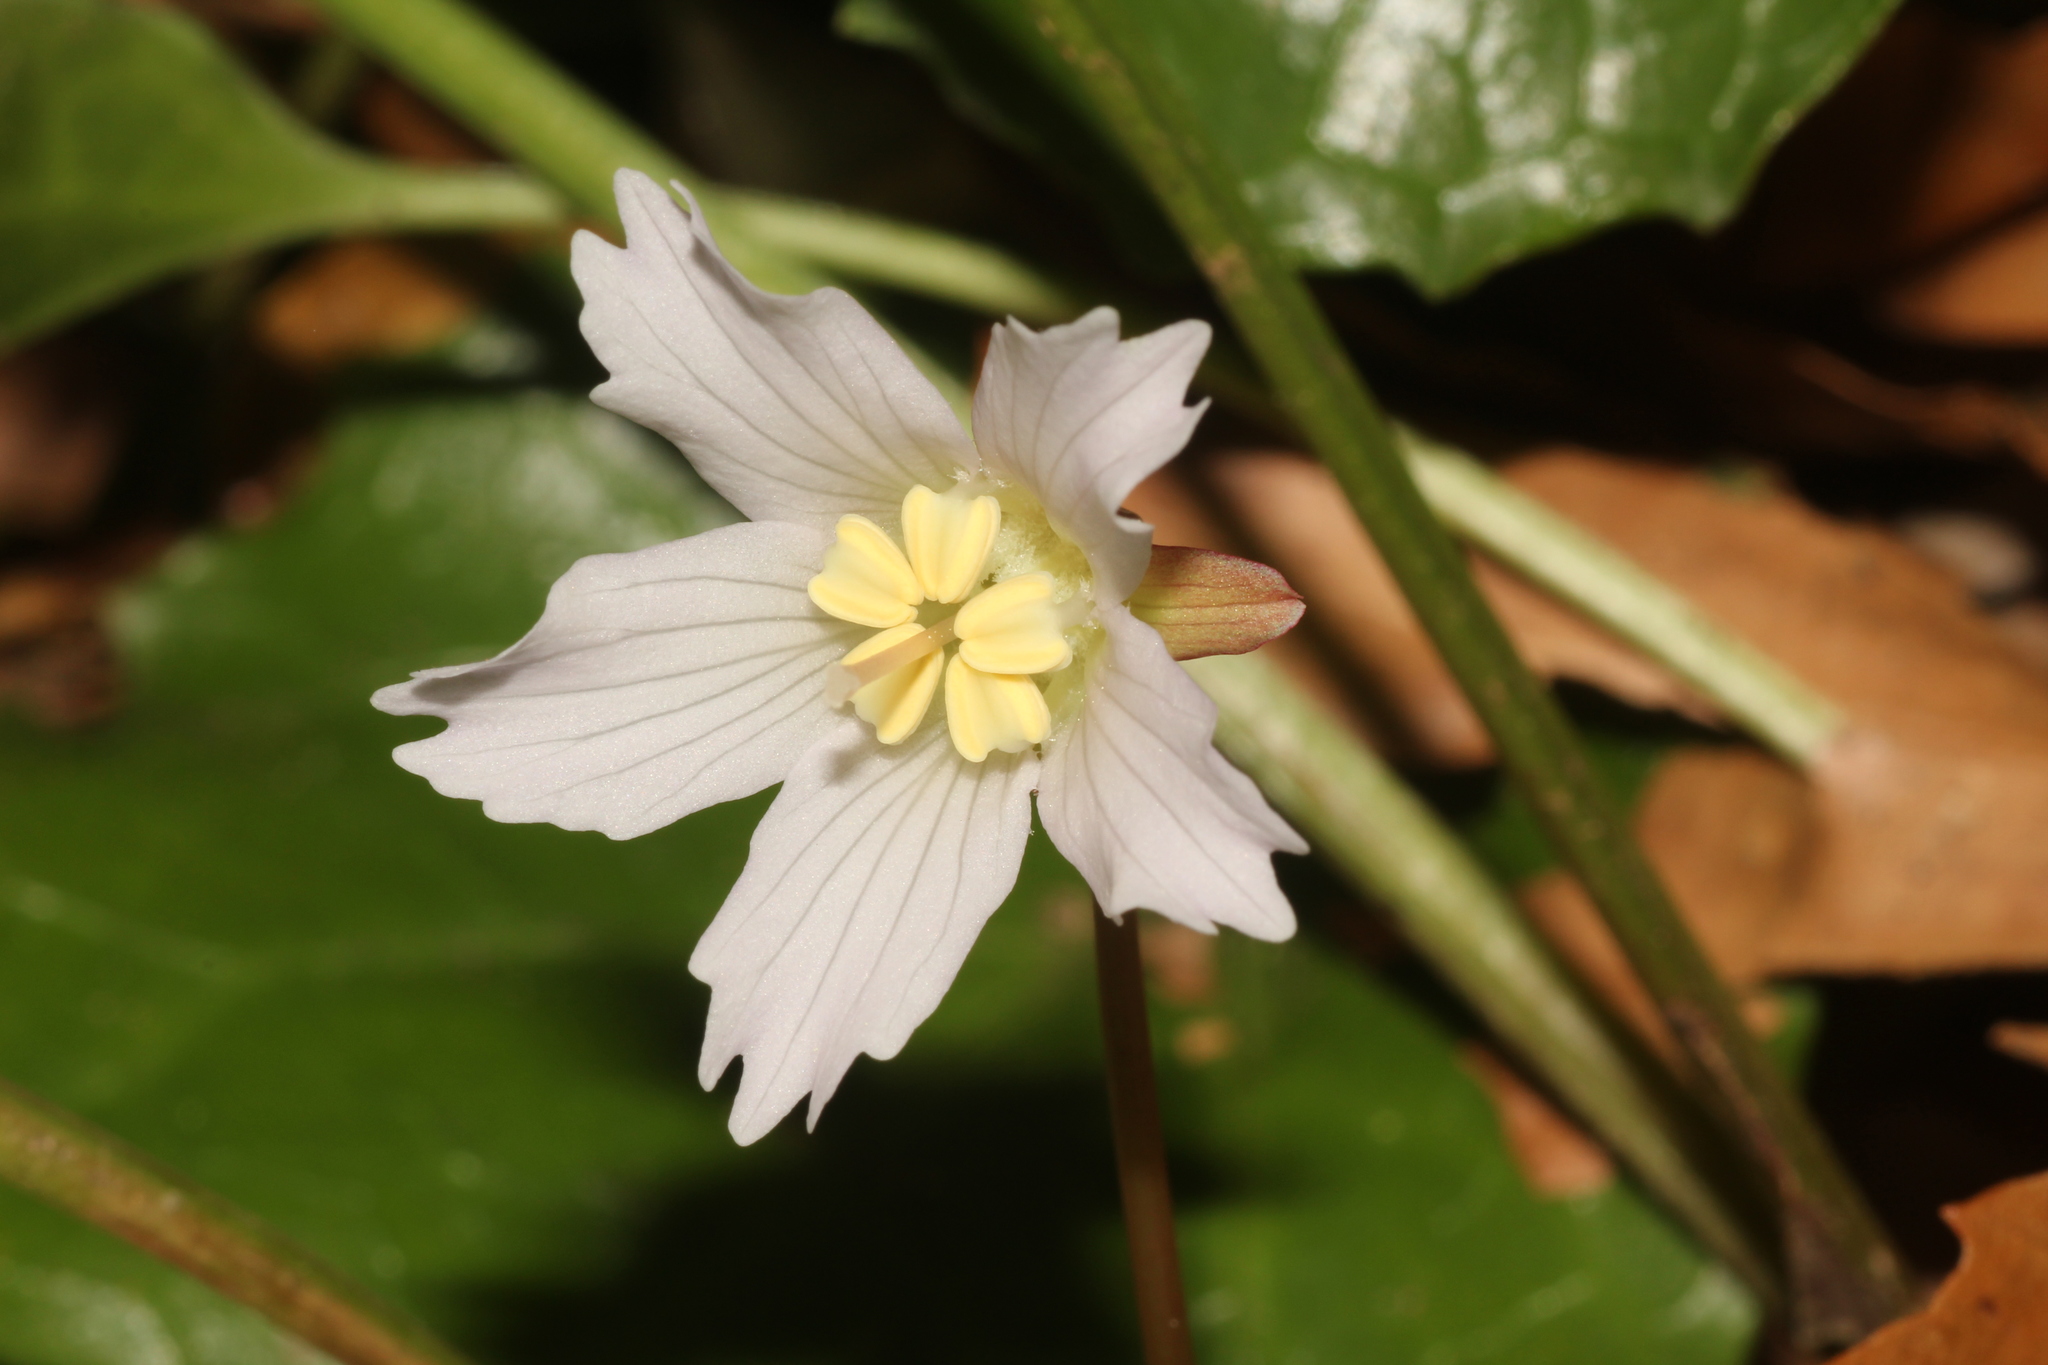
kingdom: Plantae
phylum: Tracheophyta
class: Magnoliopsida
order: Ericales
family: Diapensiaceae
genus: Shortia
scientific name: Shortia galacifolia
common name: Shortia
